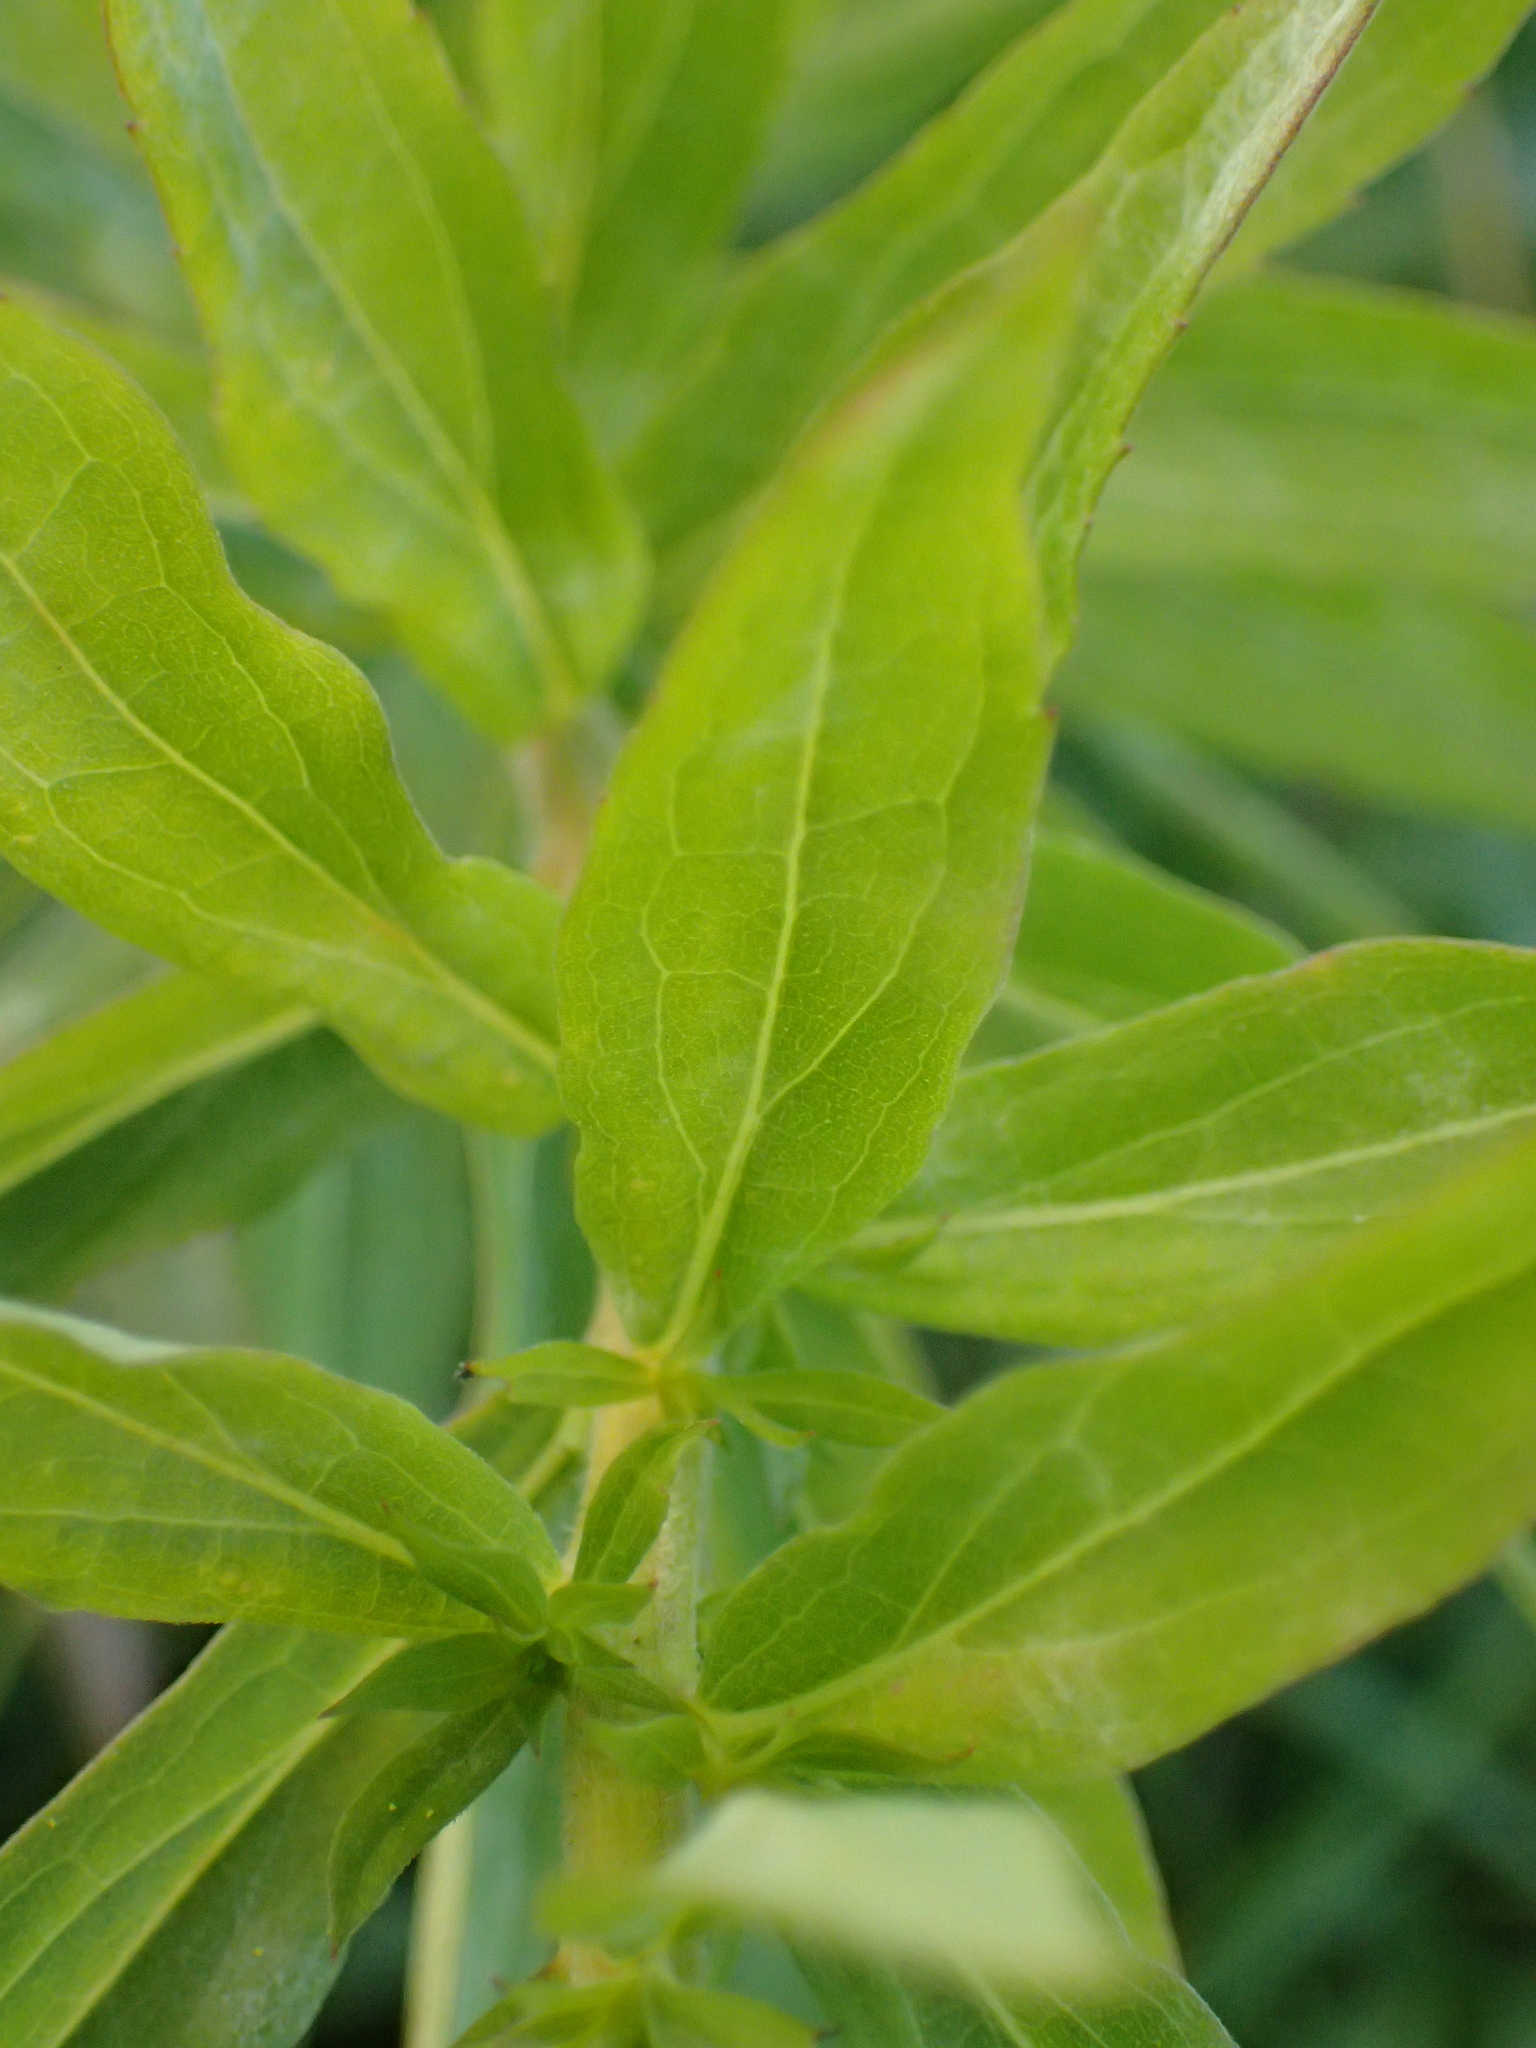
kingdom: Plantae
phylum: Tracheophyta
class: Magnoliopsida
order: Asterales
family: Asteraceae
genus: Solidago
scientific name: Solidago canadensis
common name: Canada goldenrod
